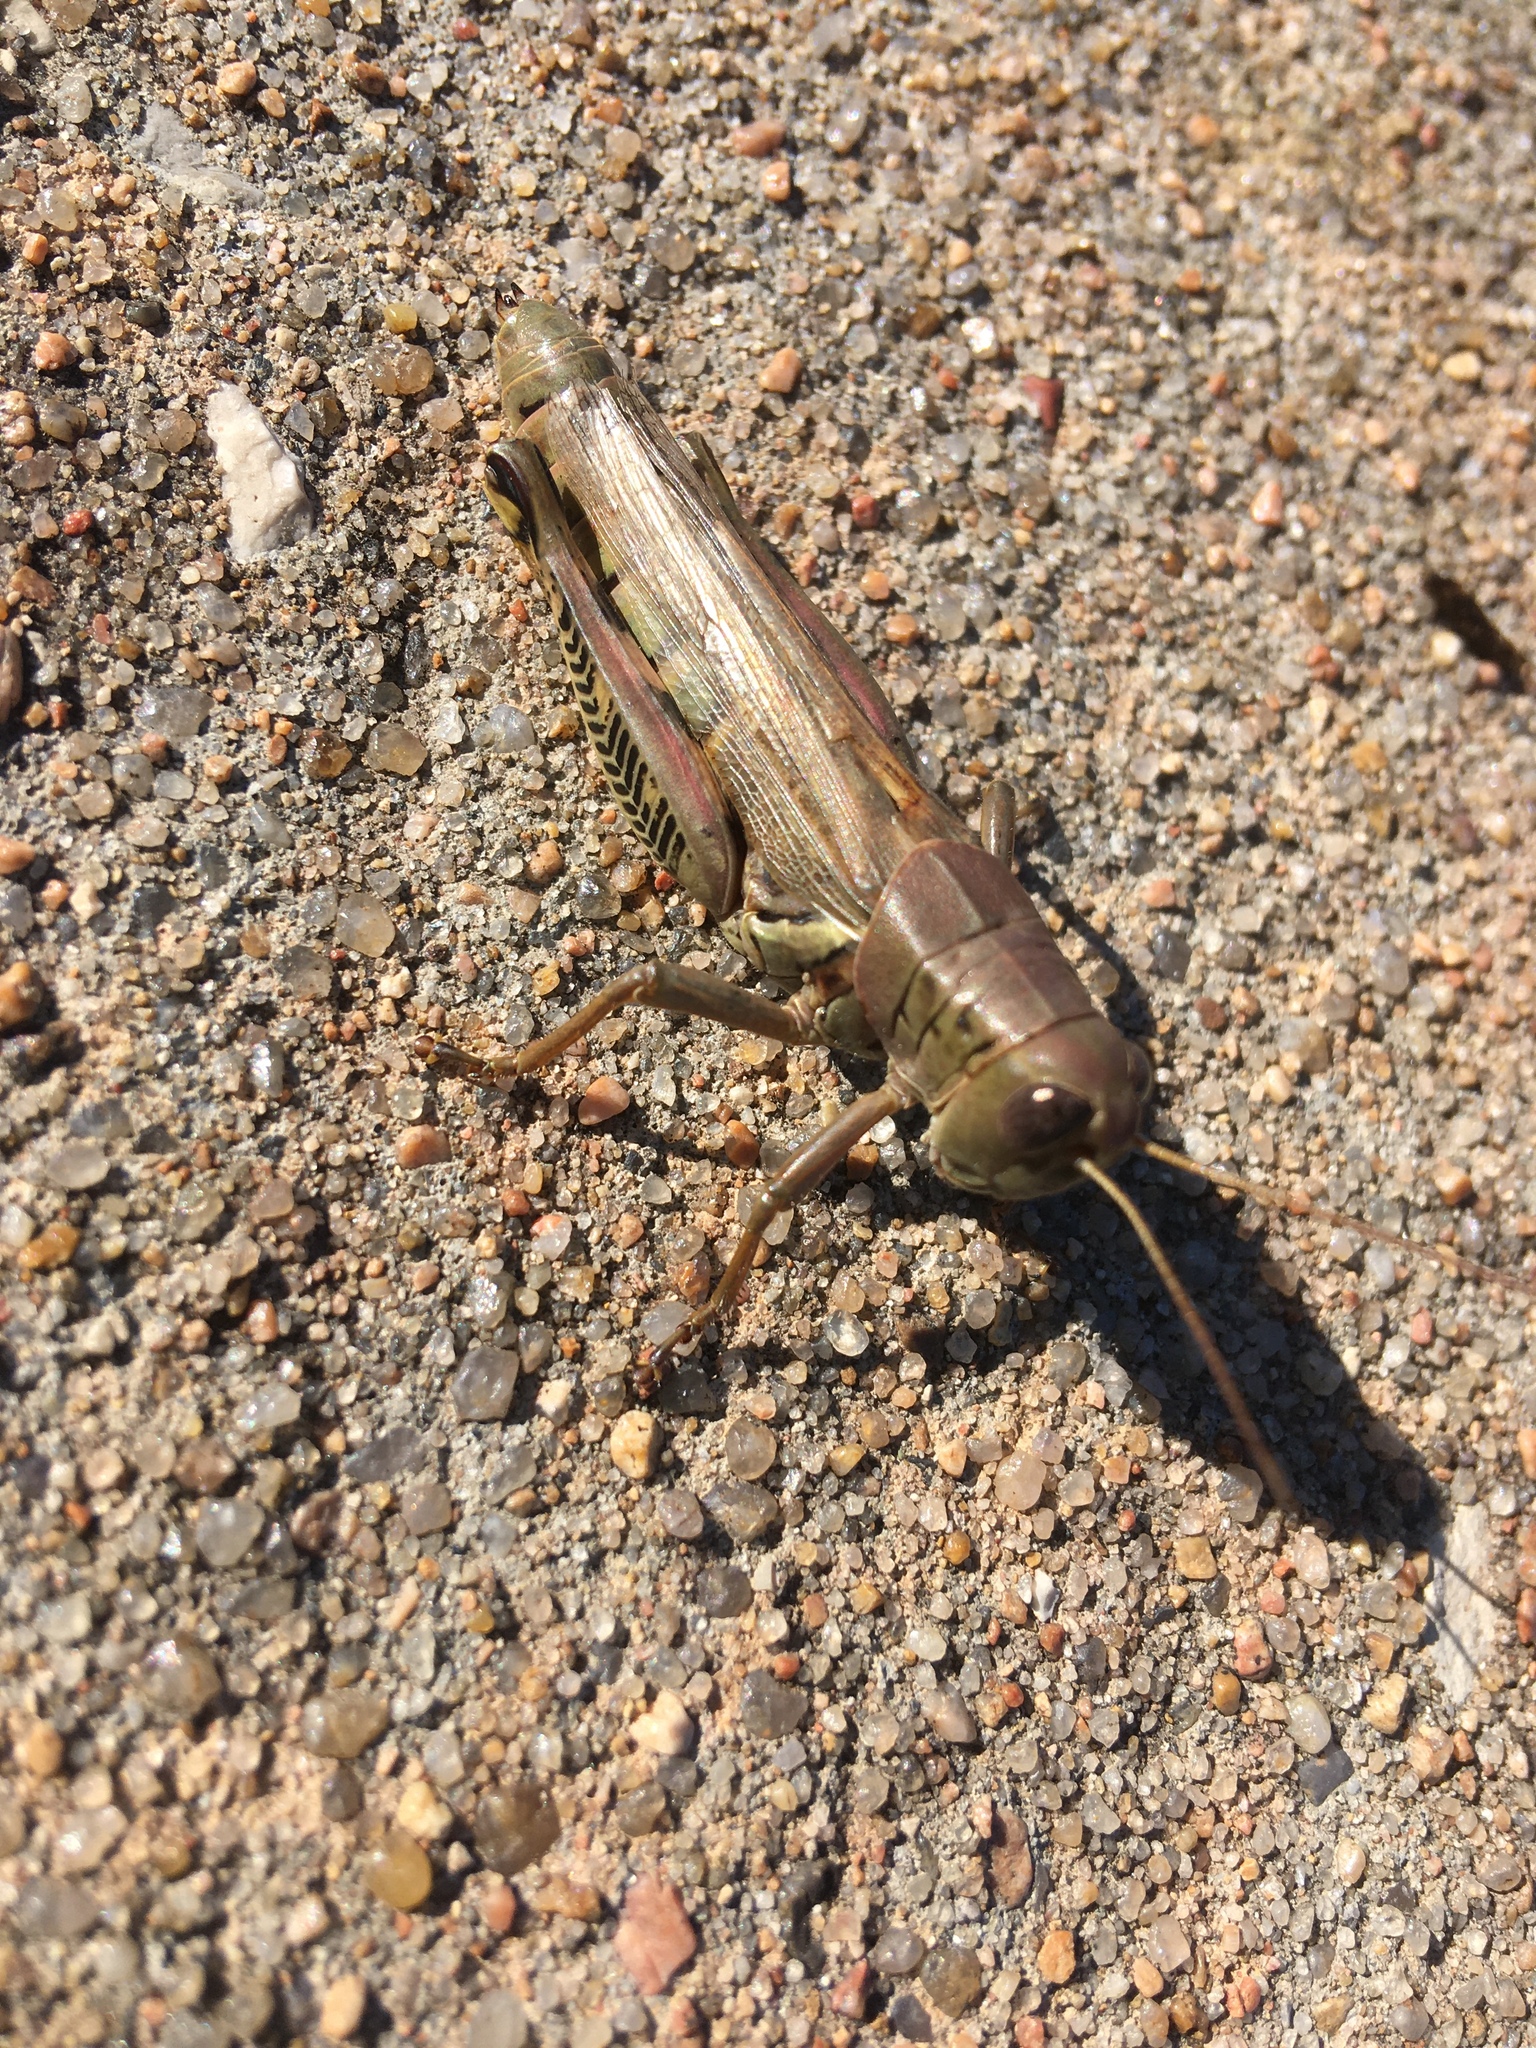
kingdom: Animalia
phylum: Arthropoda
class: Insecta
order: Orthoptera
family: Acrididae
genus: Melanoplus
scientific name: Melanoplus differentialis
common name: Differential grasshopper
